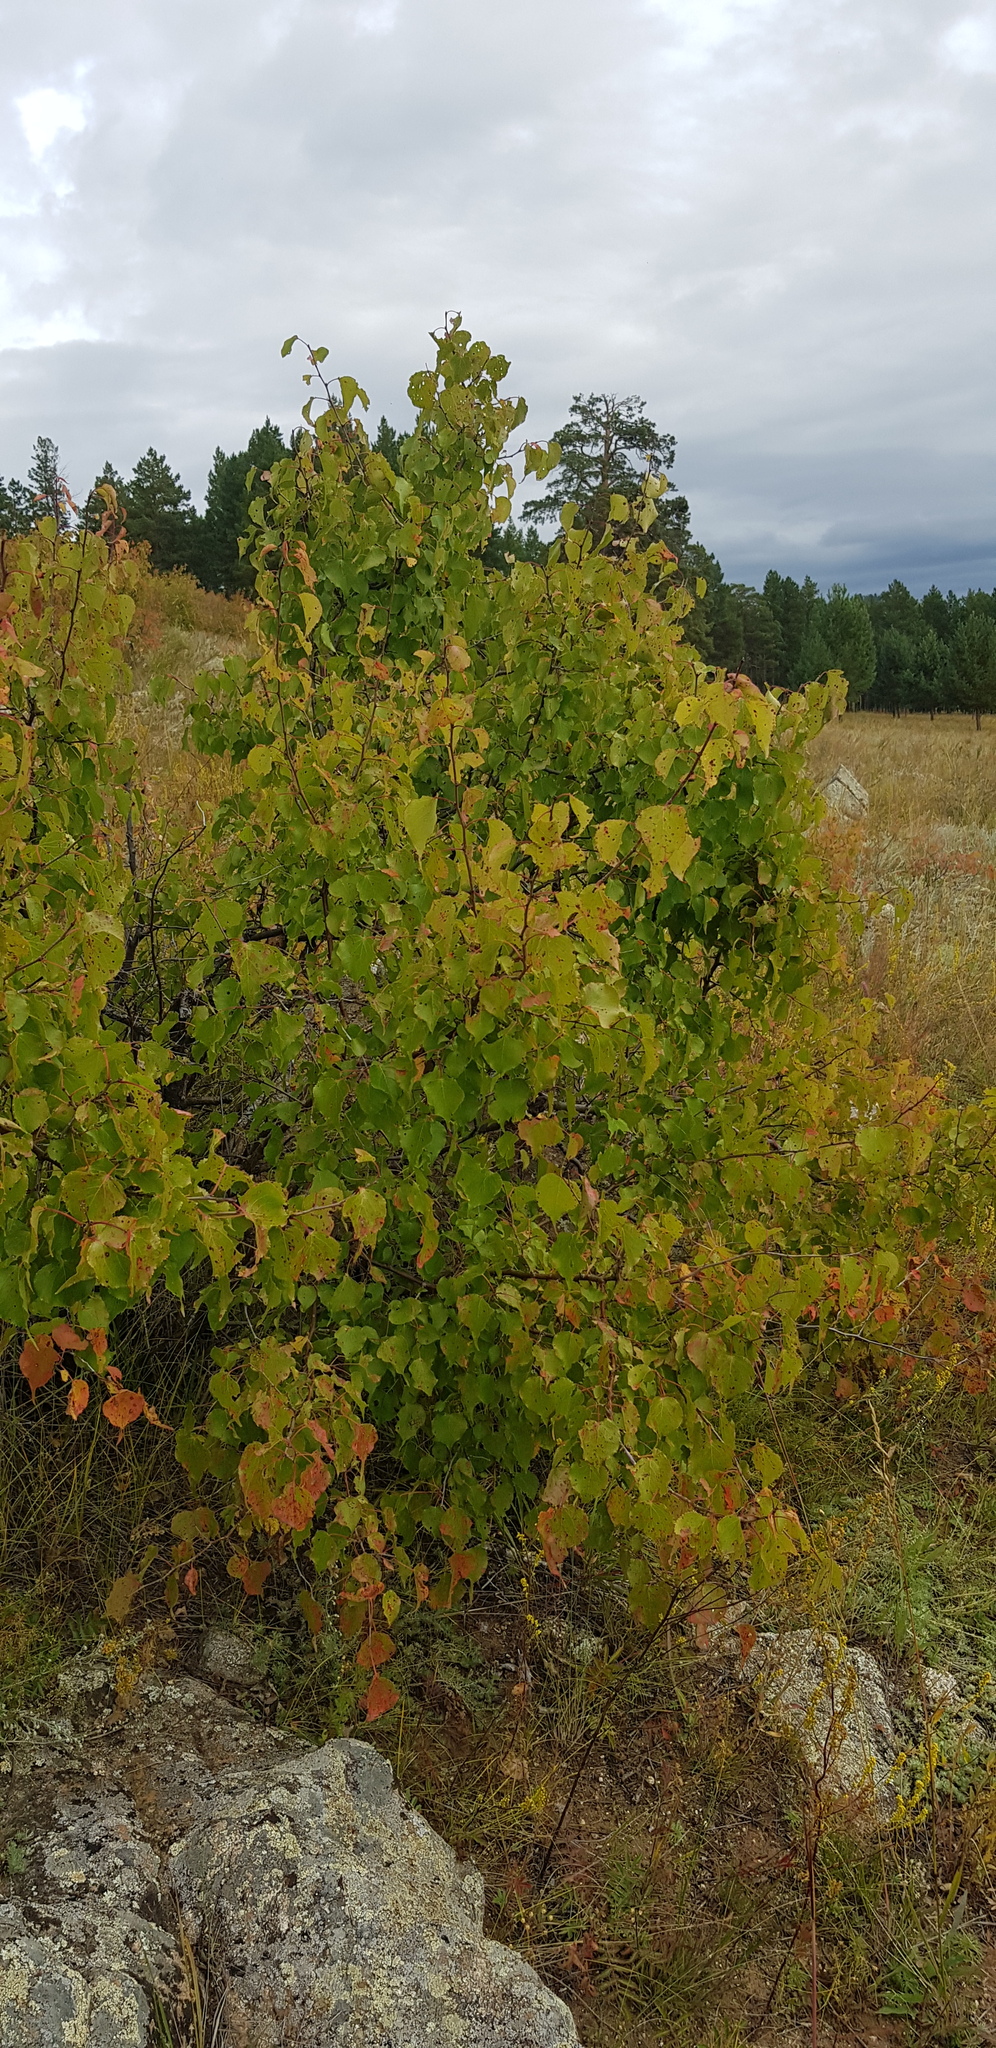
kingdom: Plantae
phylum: Tracheophyta
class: Magnoliopsida
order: Rosales
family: Rosaceae
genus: Prunus
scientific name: Prunus sibirica
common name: Siberian apricot
